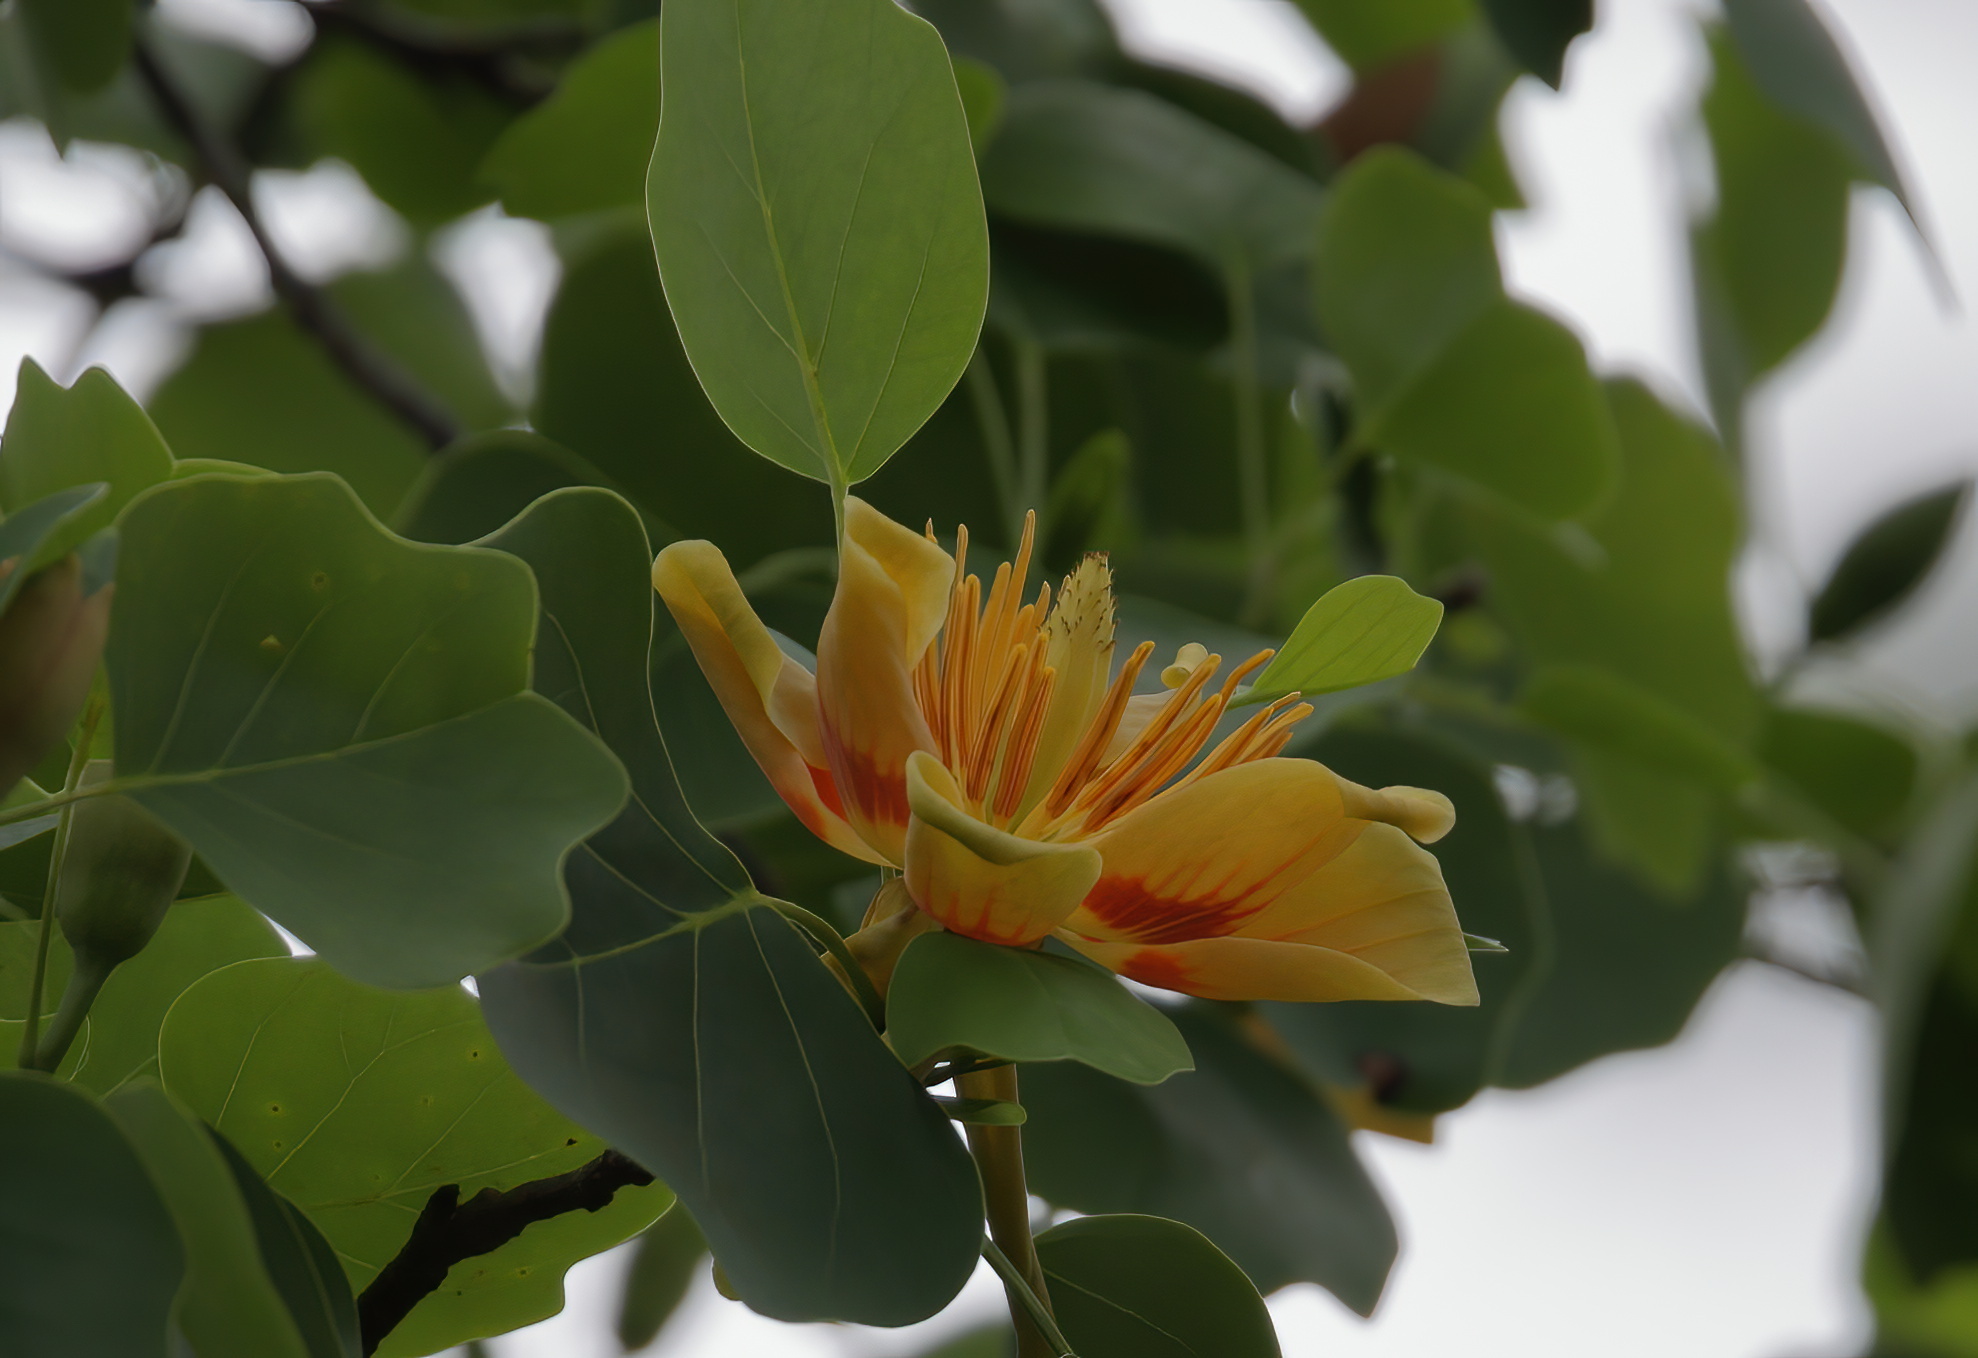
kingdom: Plantae
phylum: Tracheophyta
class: Magnoliopsida
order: Magnoliales
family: Magnoliaceae
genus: Liriodendron
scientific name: Liriodendron tulipifera
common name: Tulip tree
